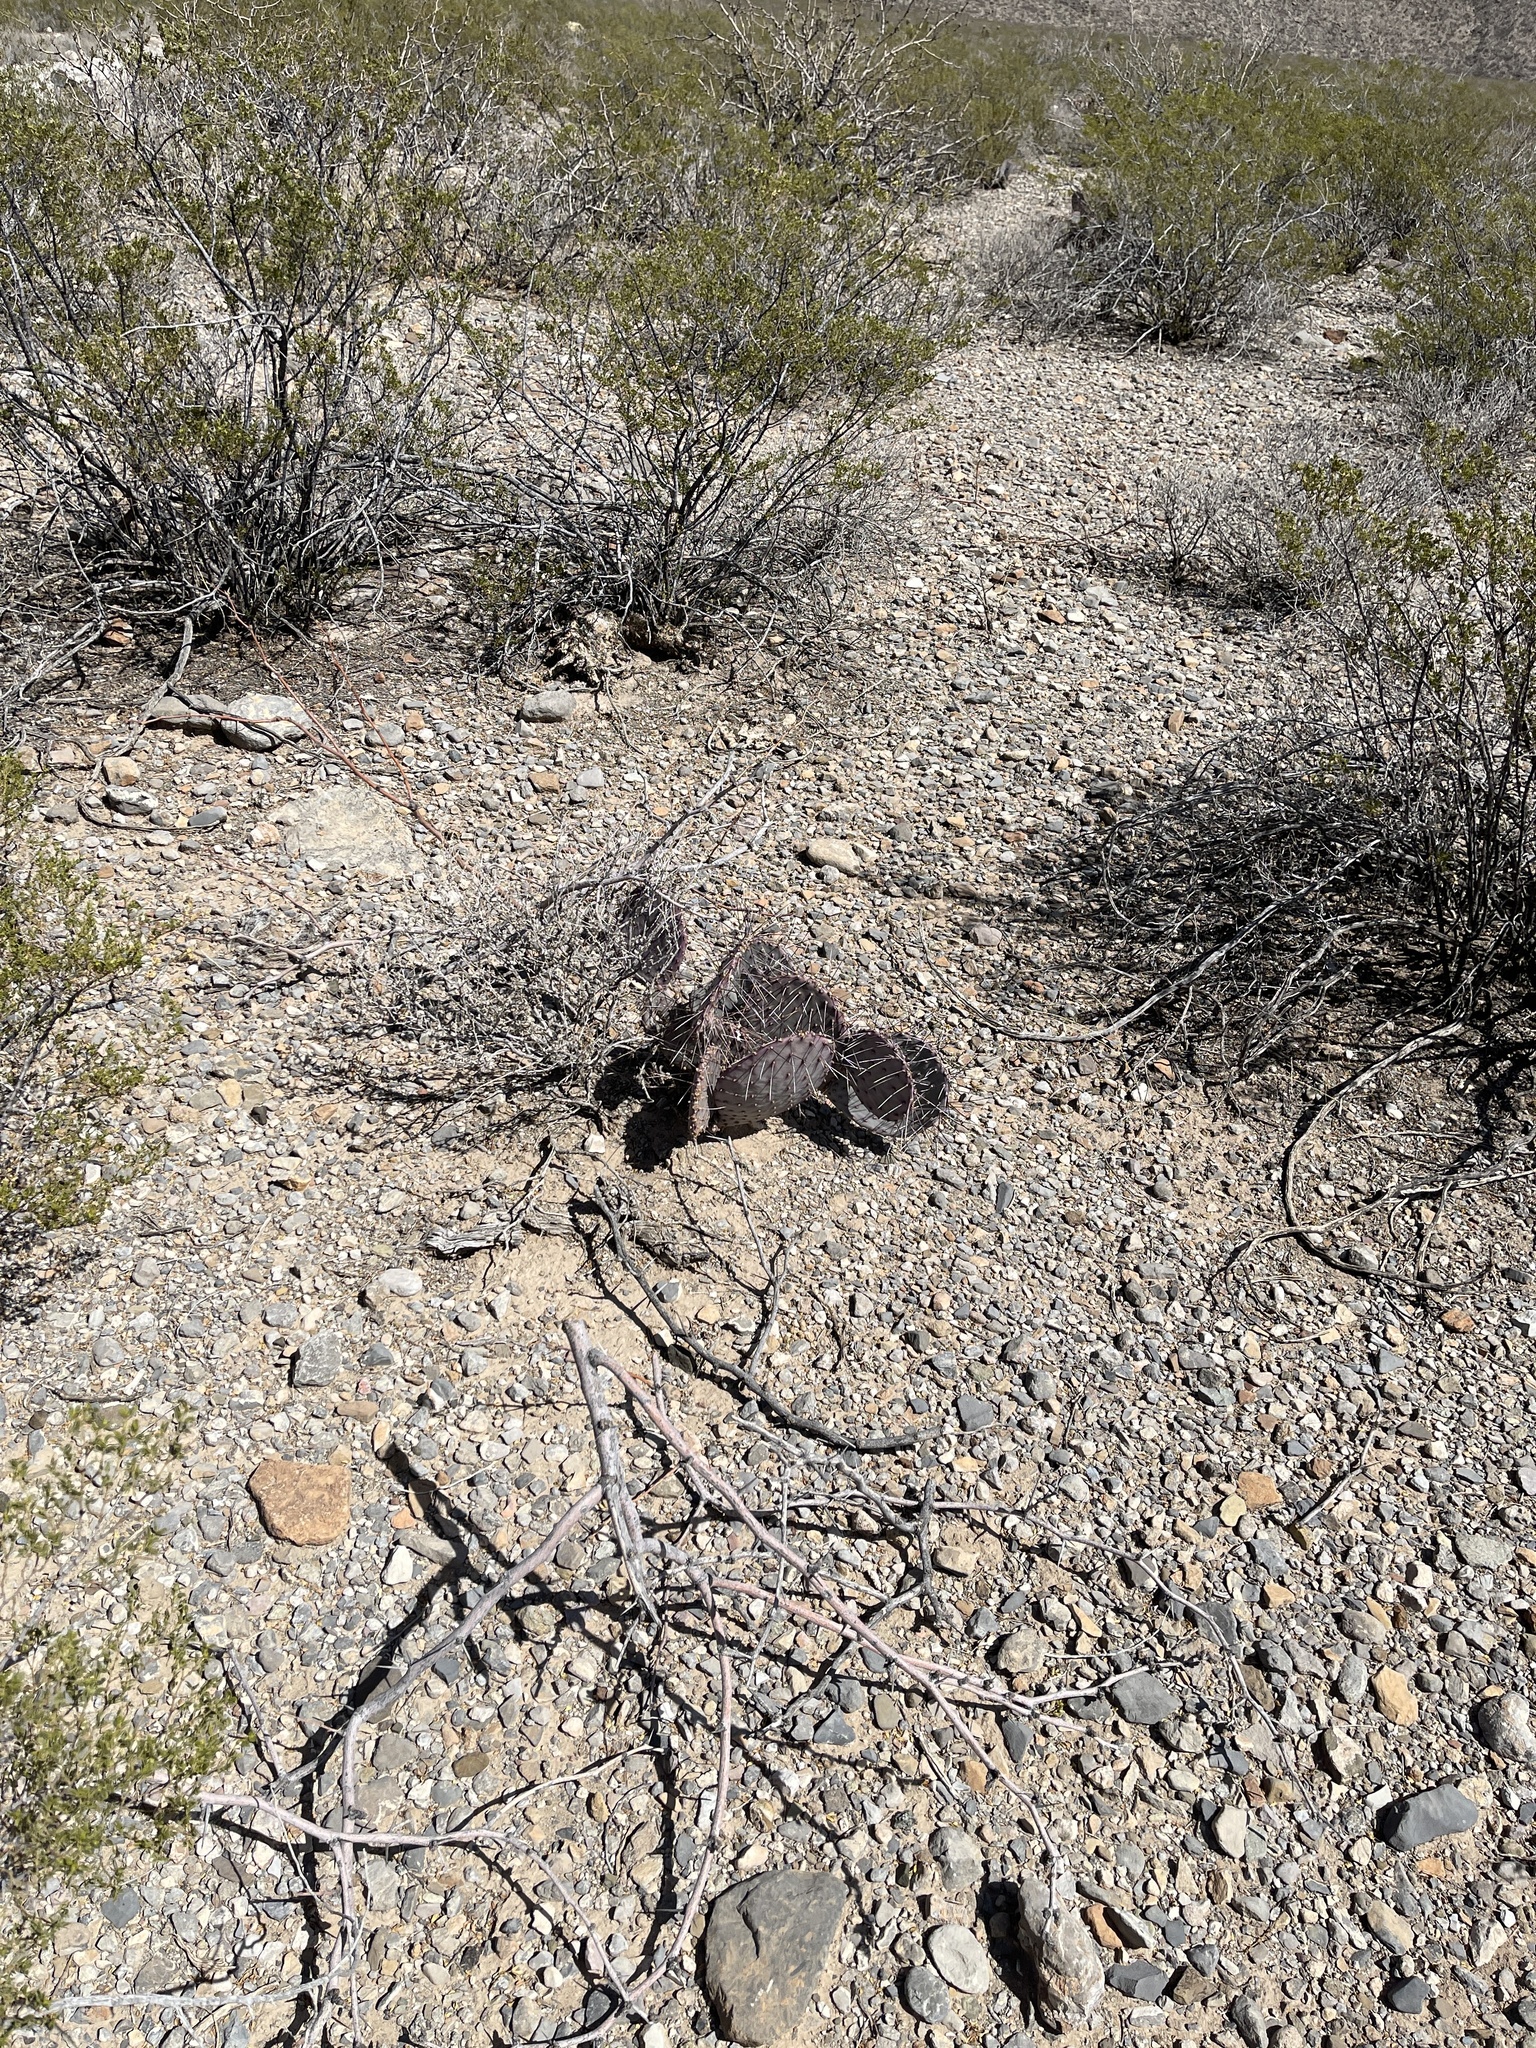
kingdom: Plantae
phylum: Tracheophyta
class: Magnoliopsida
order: Caryophyllales
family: Cactaceae
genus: Opuntia
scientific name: Opuntia macrocentra
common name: Purple prickly-pear
